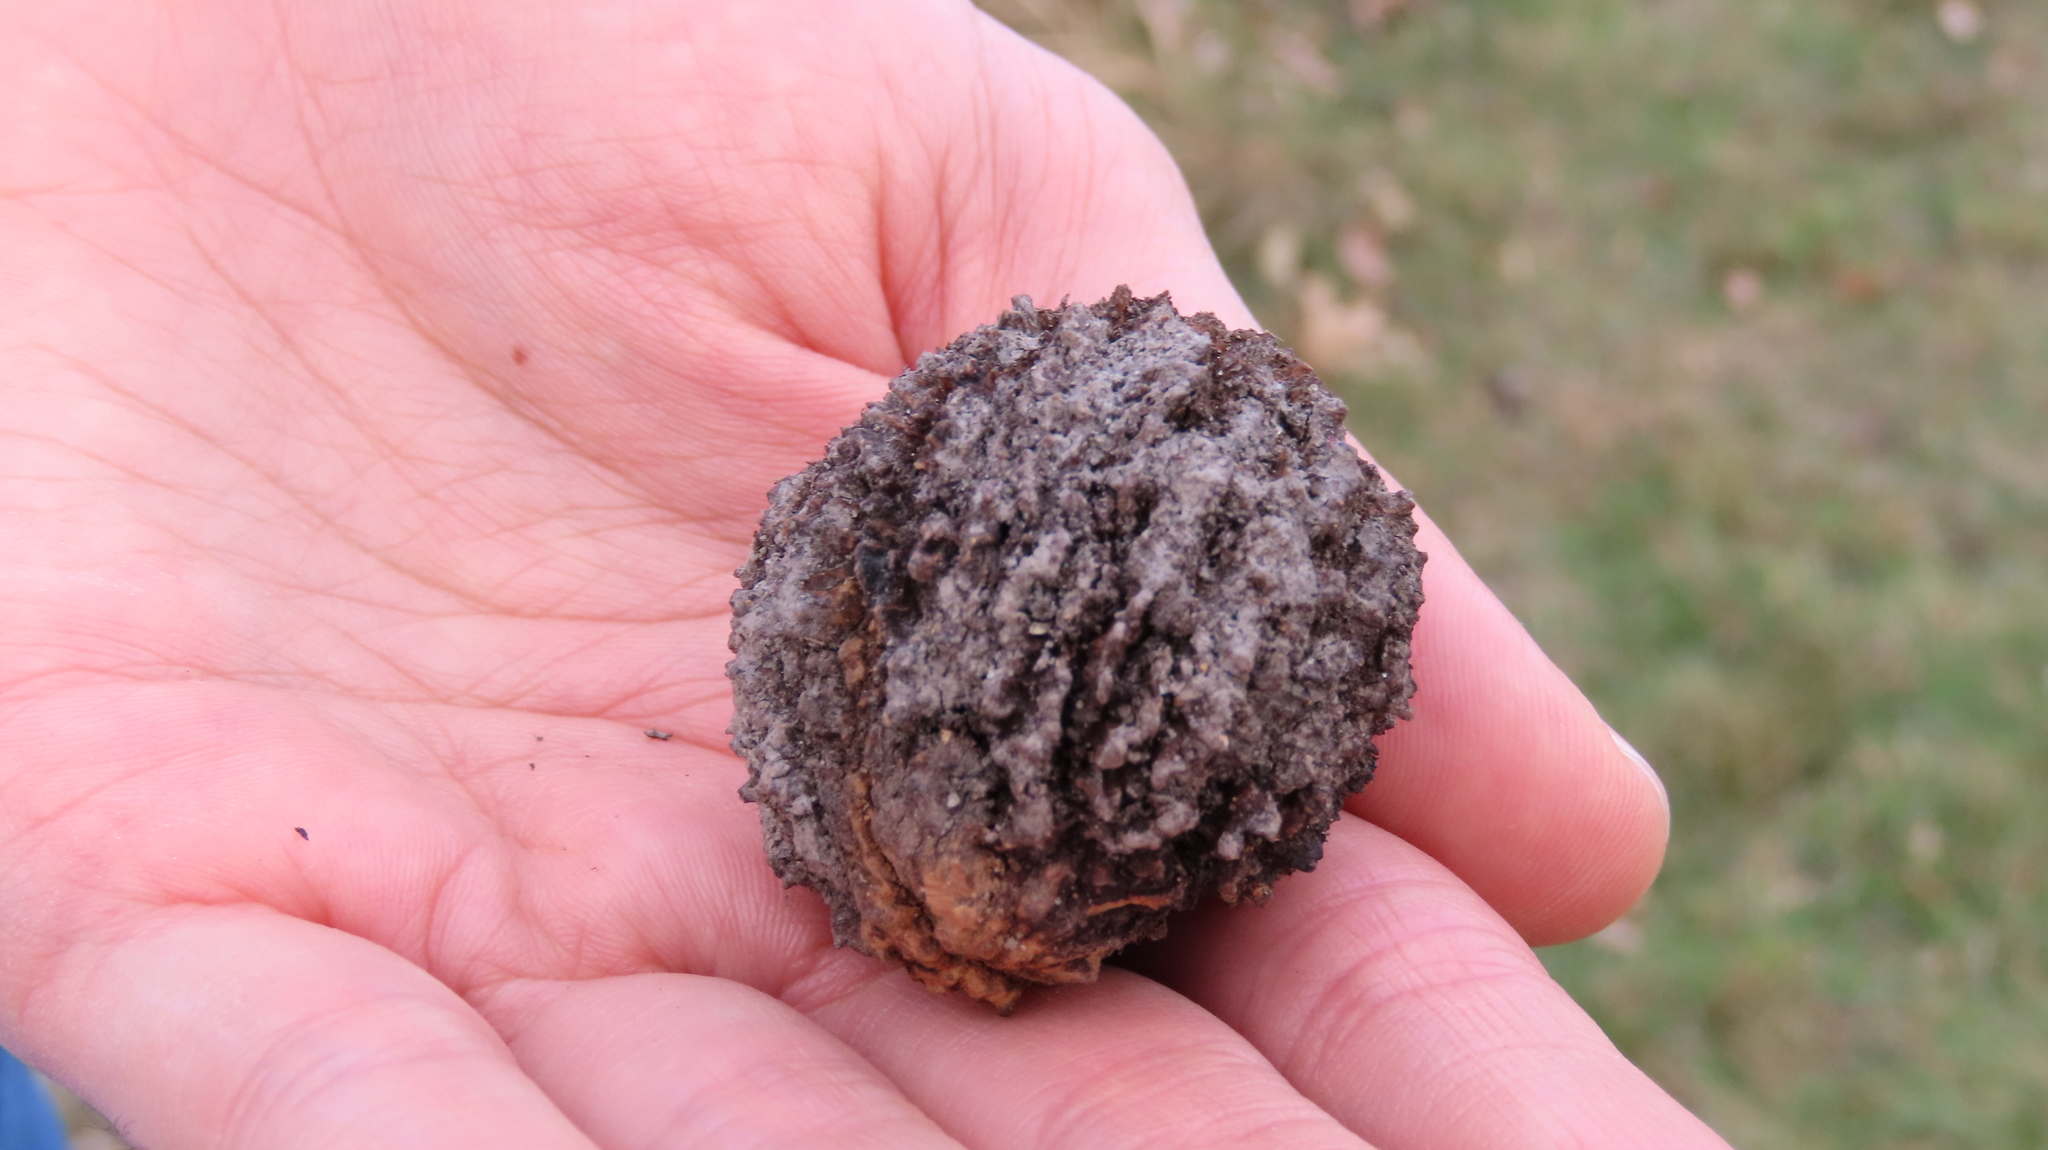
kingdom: Plantae
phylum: Tracheophyta
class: Magnoliopsida
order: Fagales
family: Juglandaceae
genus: Juglans
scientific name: Juglans nigra
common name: Black walnut
